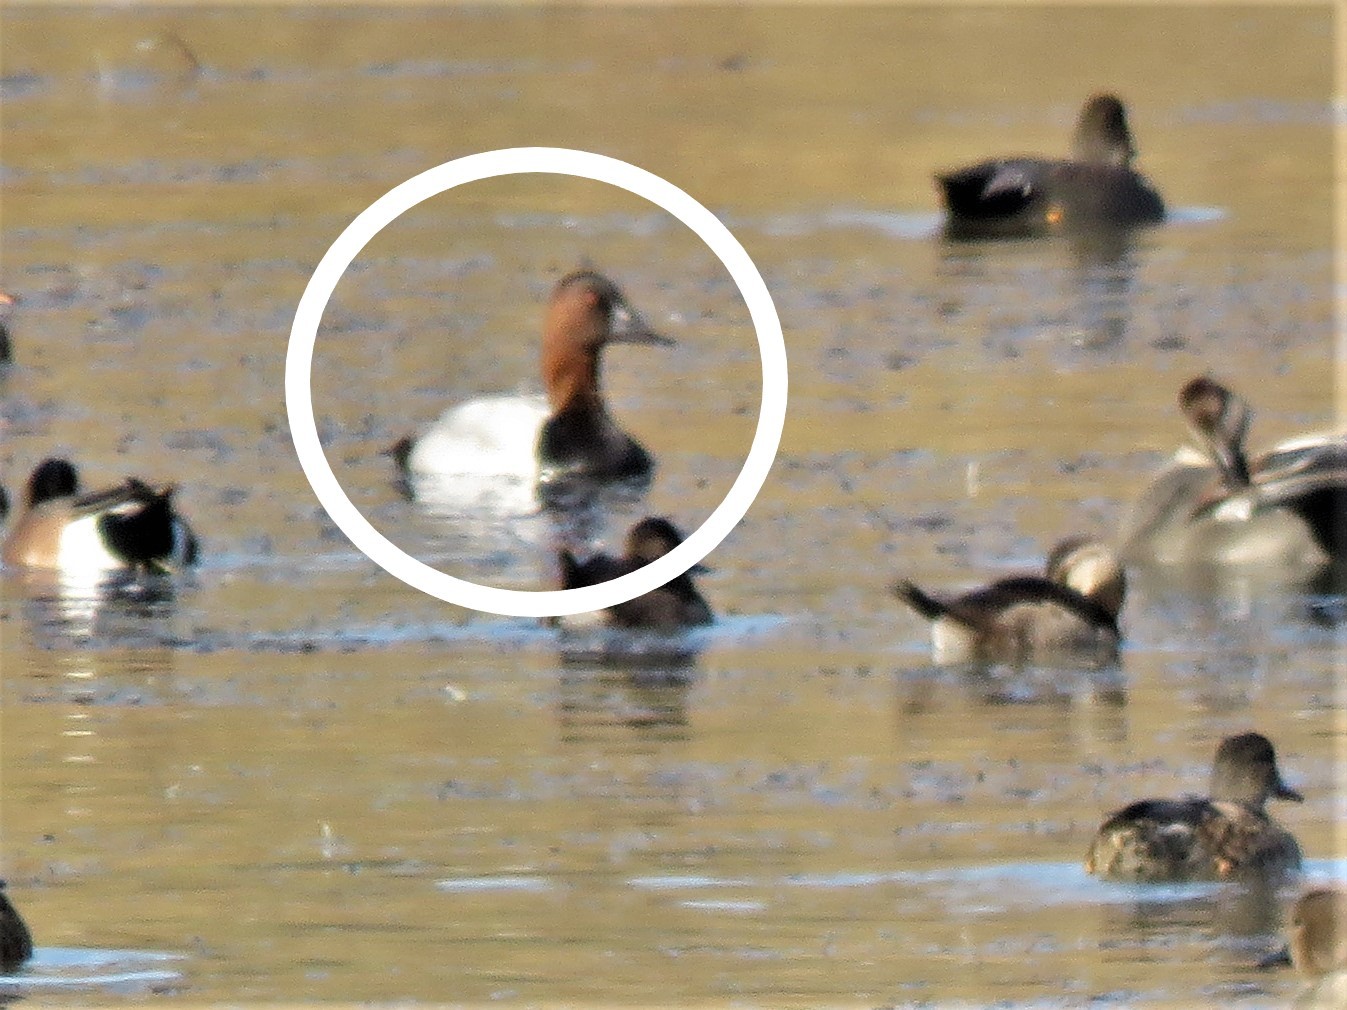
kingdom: Animalia
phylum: Chordata
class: Aves
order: Anseriformes
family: Anatidae
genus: Aythya
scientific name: Aythya valisineria
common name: Canvasback
